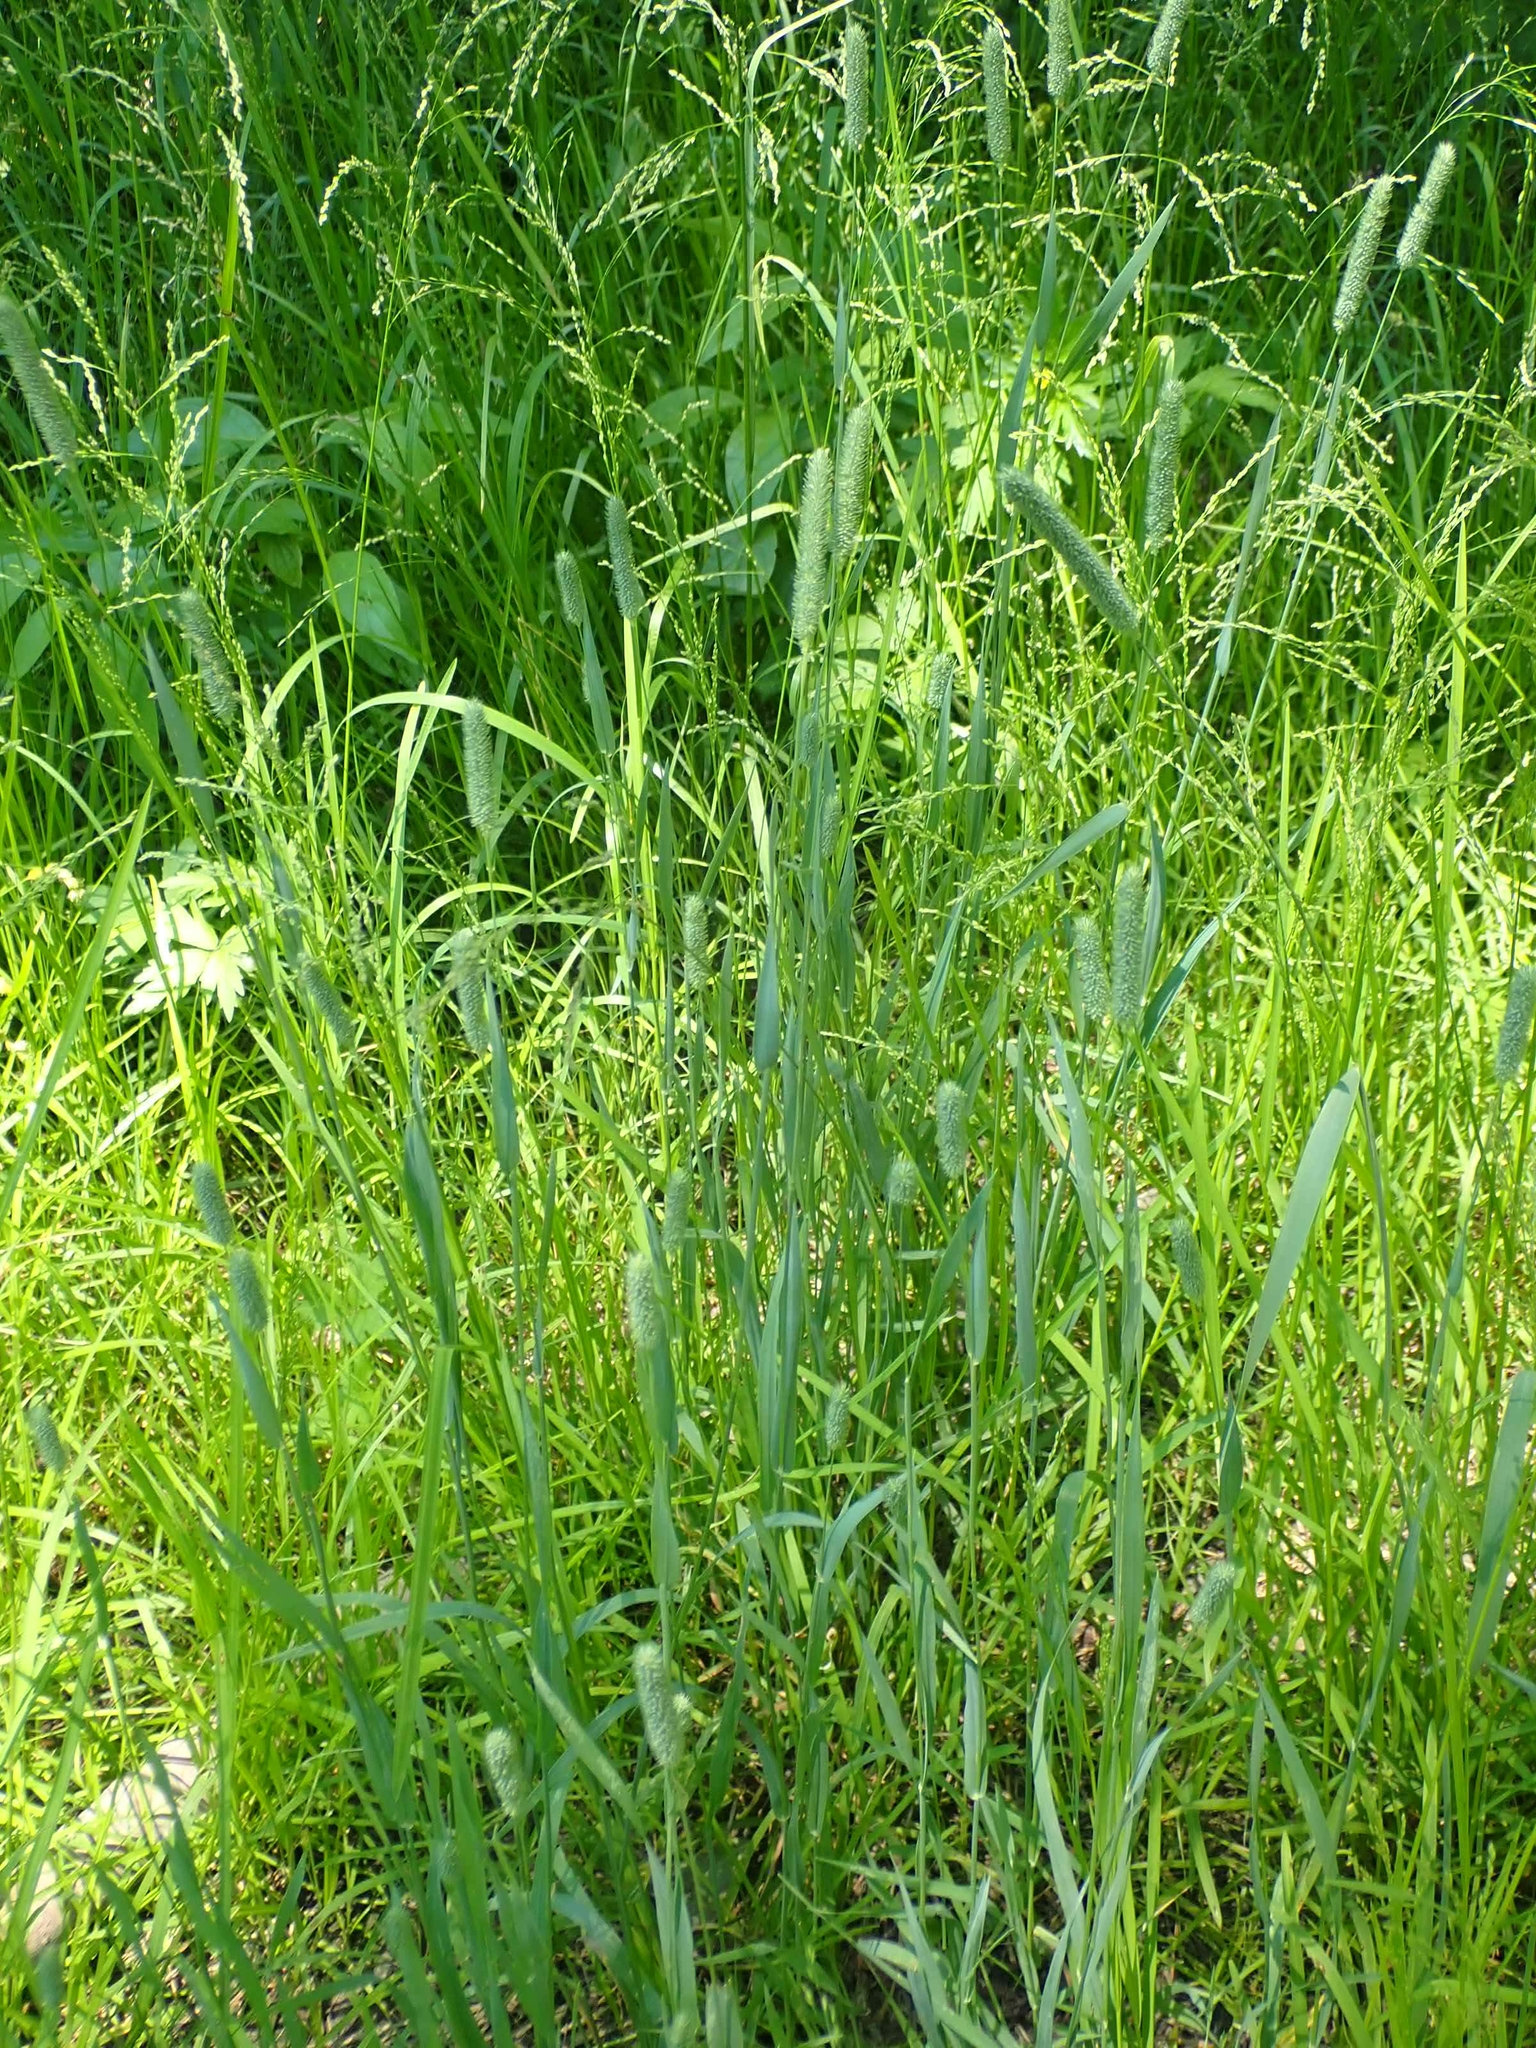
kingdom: Plantae
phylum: Tracheophyta
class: Liliopsida
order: Poales
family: Poaceae
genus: Phleum
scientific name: Phleum pratense
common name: Timothy grass
